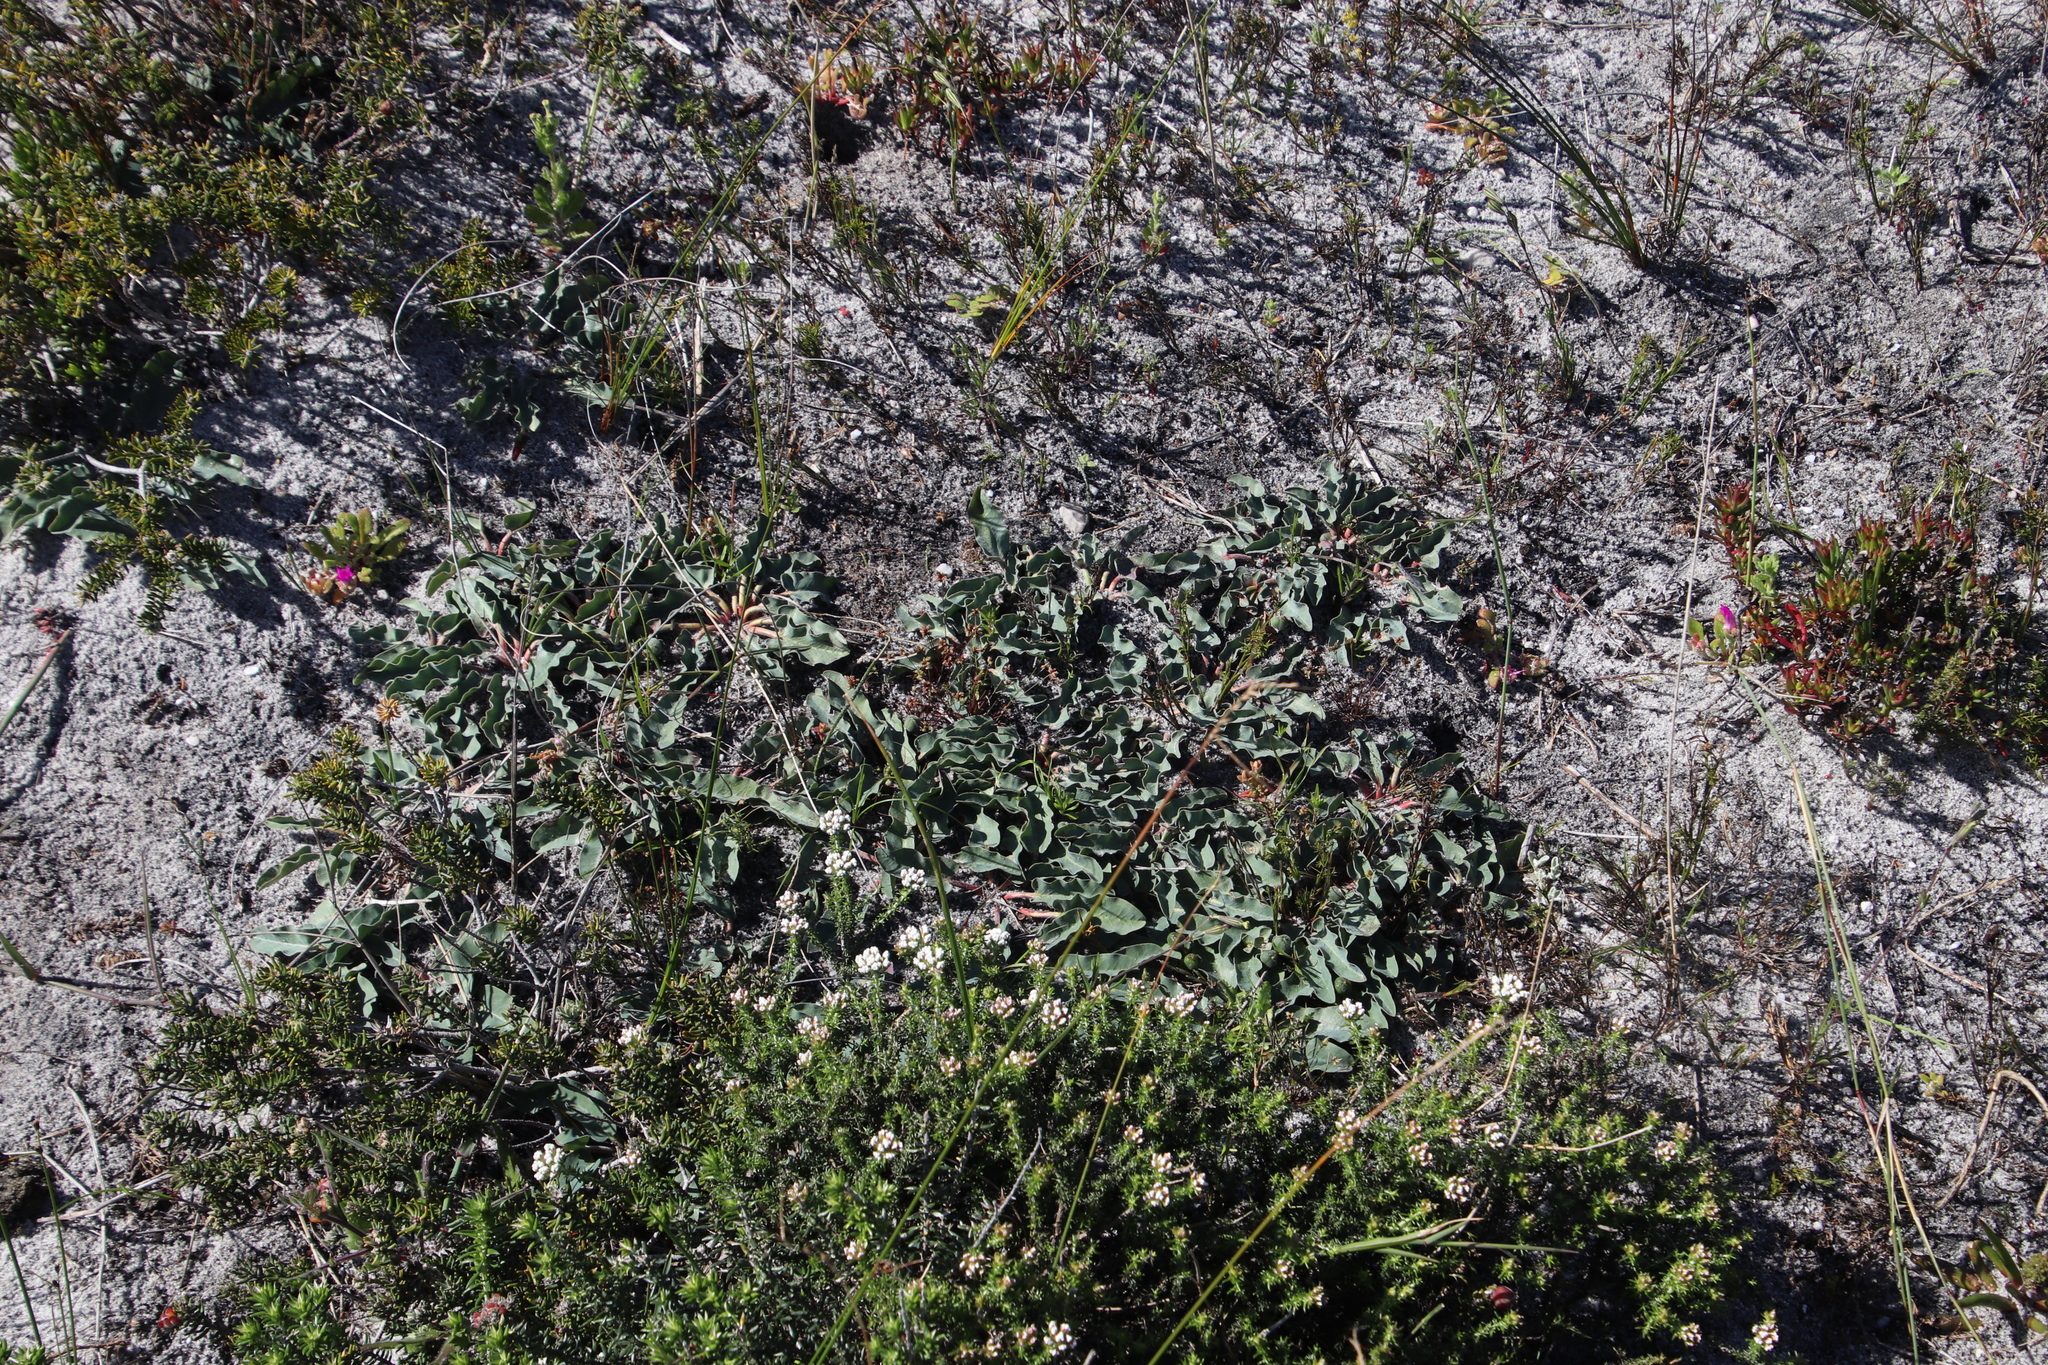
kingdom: Plantae
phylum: Tracheophyta
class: Magnoliopsida
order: Malpighiales
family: Euphorbiaceae
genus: Euphorbia
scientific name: Euphorbia tuberosa
